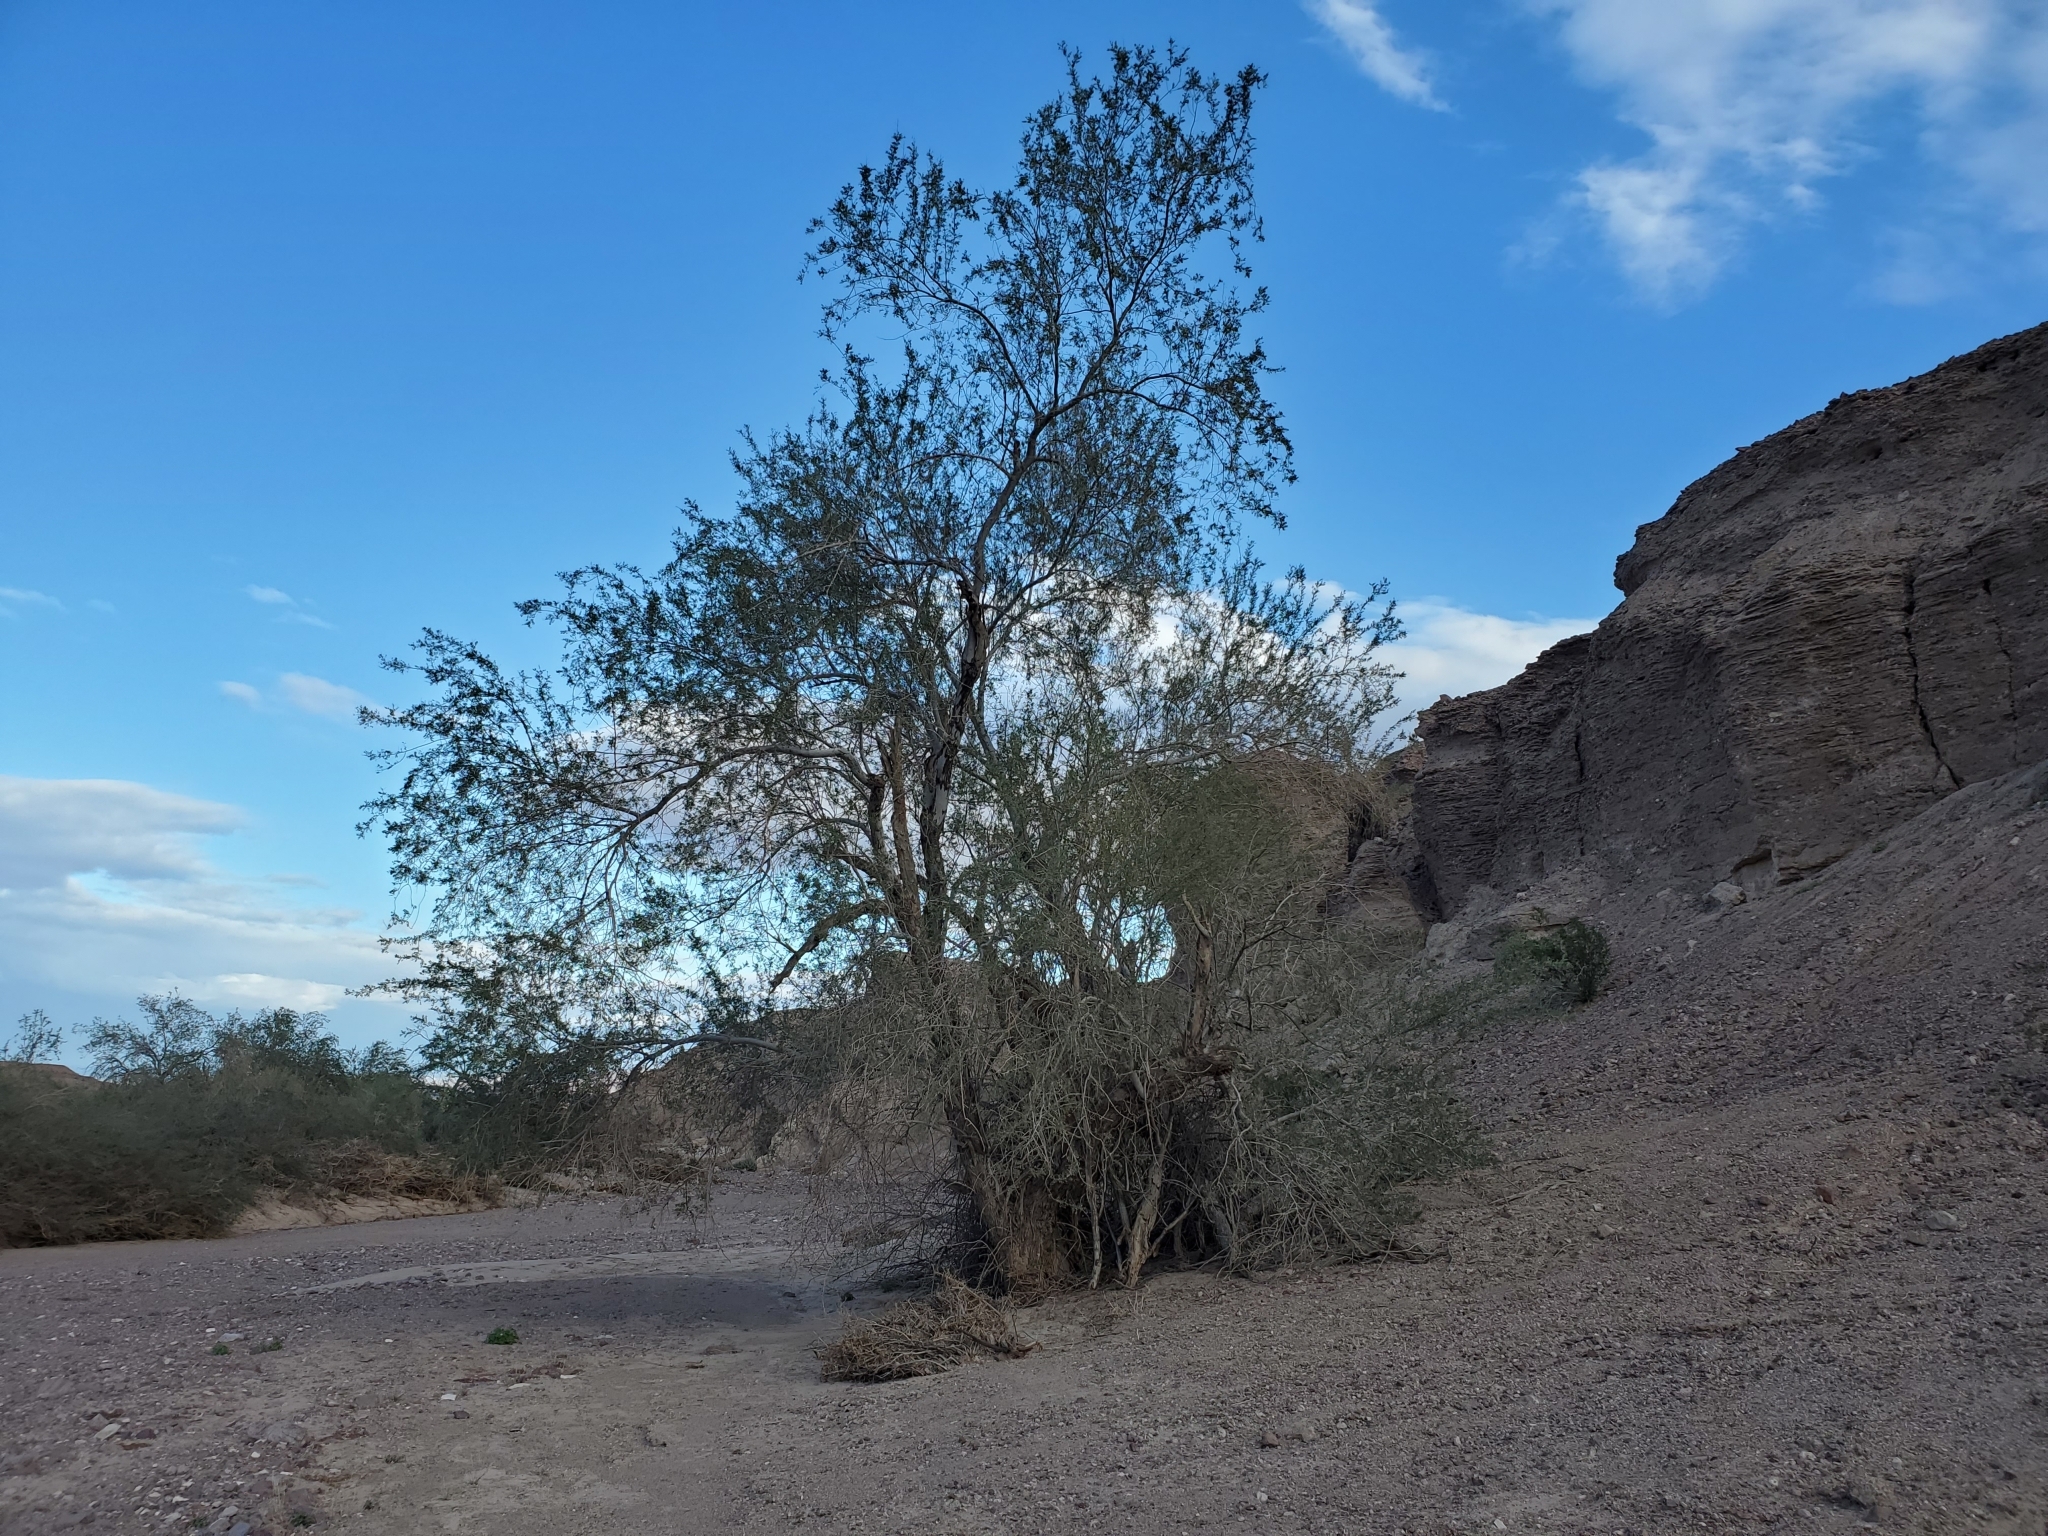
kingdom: Plantae
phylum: Tracheophyta
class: Magnoliopsida
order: Fabales
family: Fabaceae
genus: Olneya
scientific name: Olneya tesota
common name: Desert ironwood
